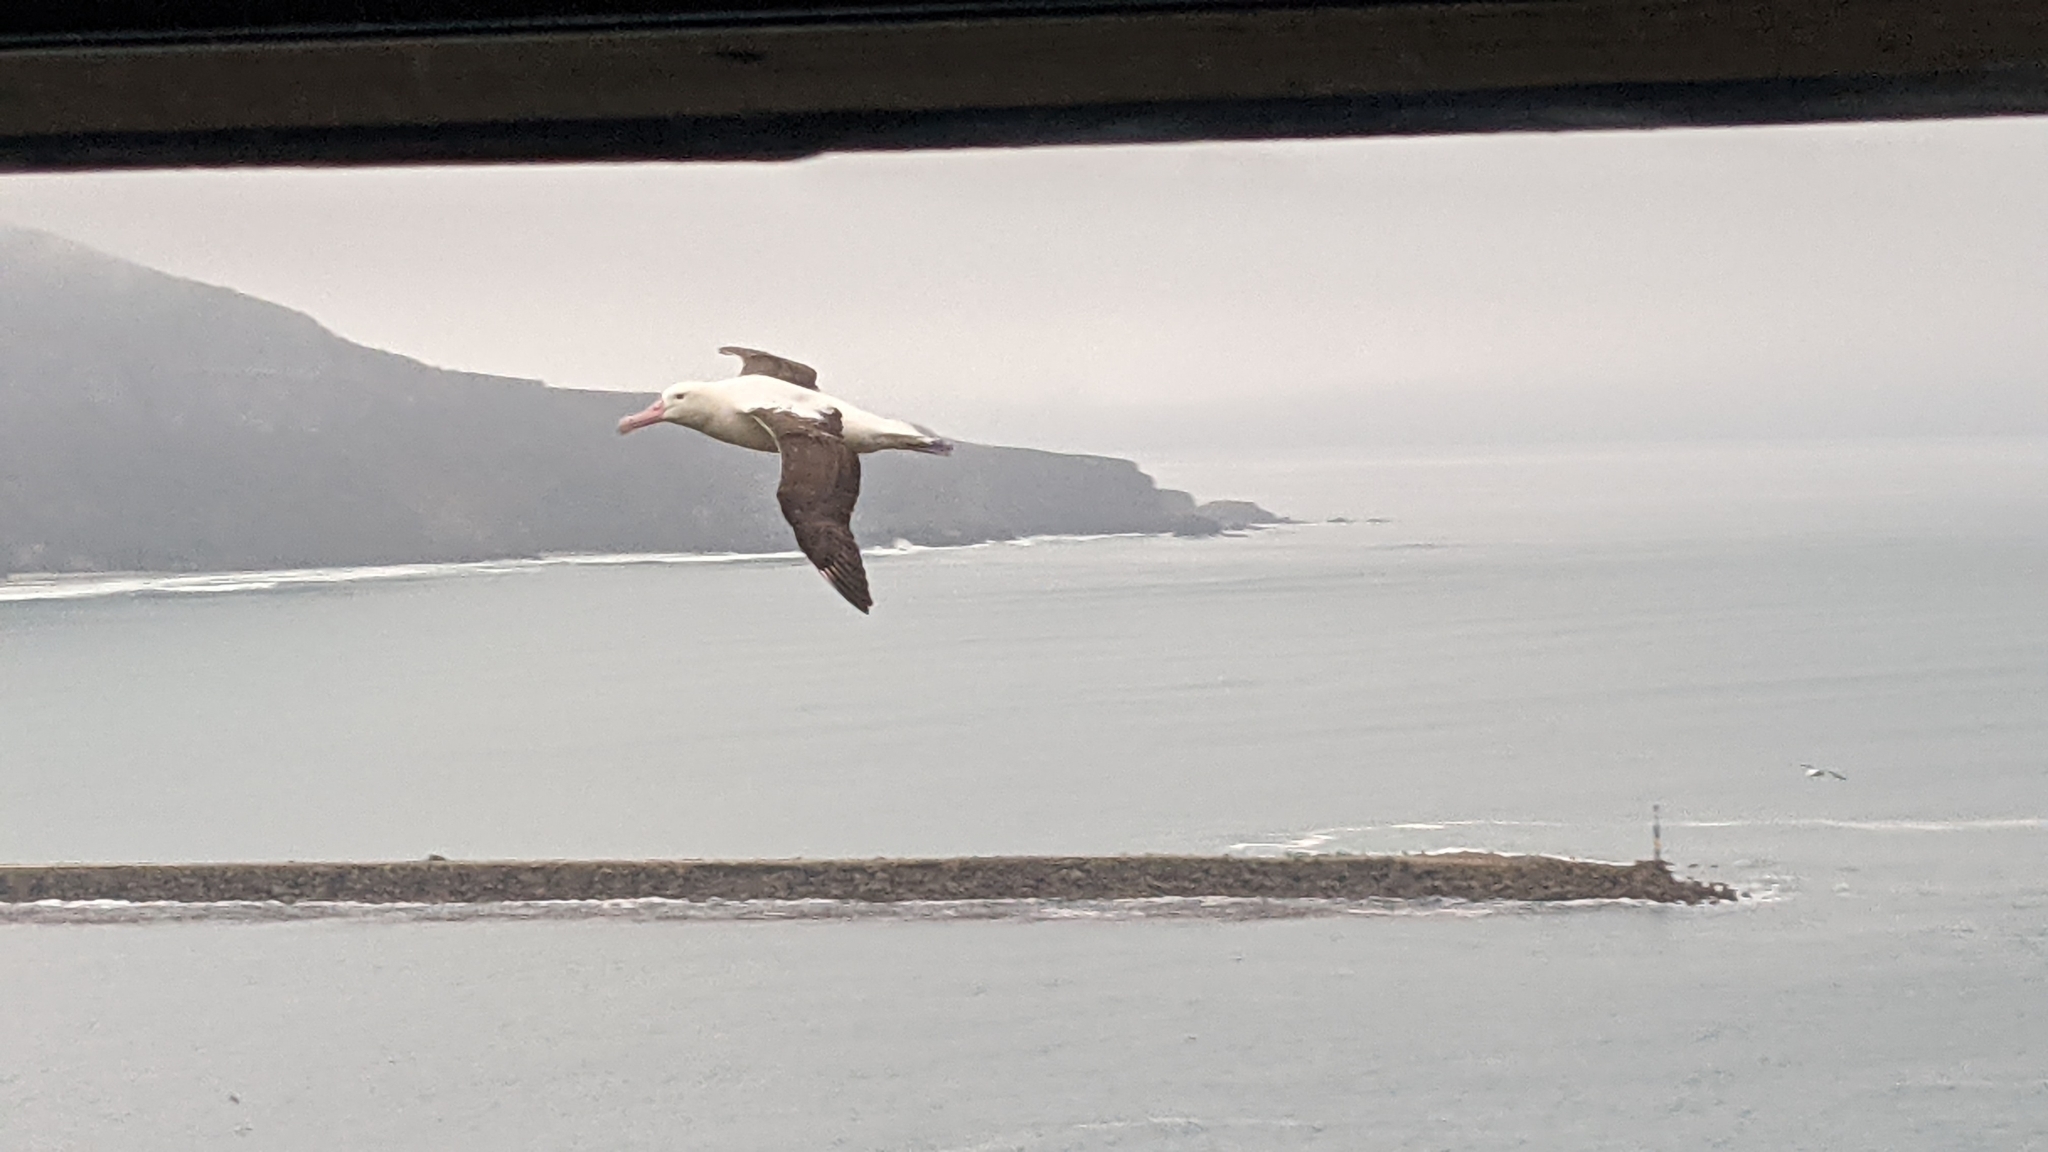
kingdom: Animalia
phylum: Chordata
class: Aves
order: Procellariiformes
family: Diomedeidae
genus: Diomedea
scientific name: Diomedea sanfordi
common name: Northern royal albatross
